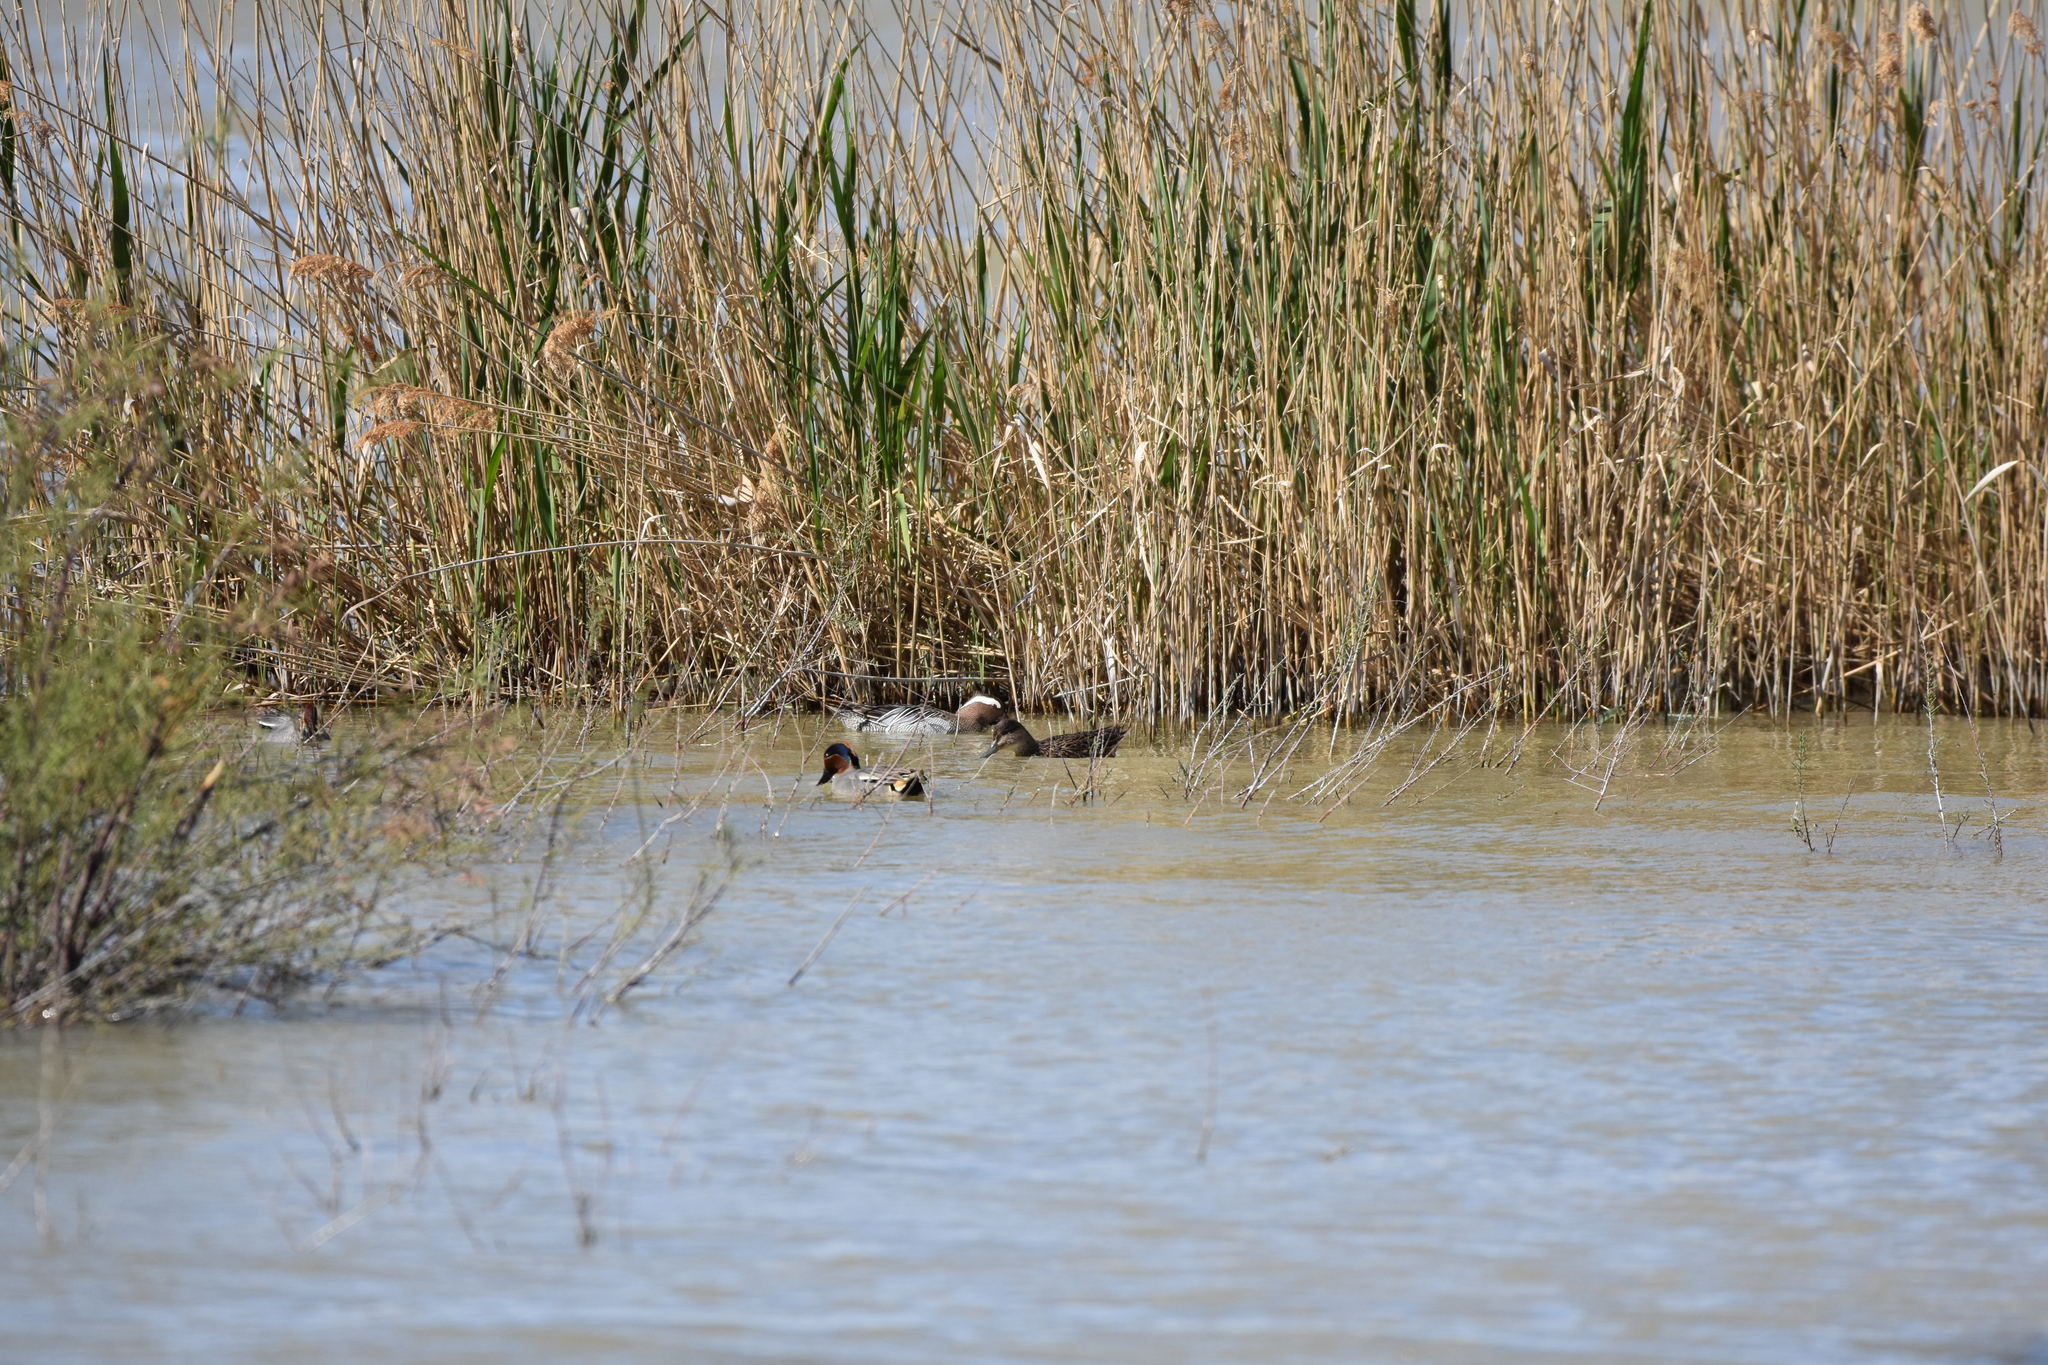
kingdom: Animalia
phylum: Chordata
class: Aves
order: Anseriformes
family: Anatidae
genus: Anas
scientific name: Anas crecca
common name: Eurasian teal
